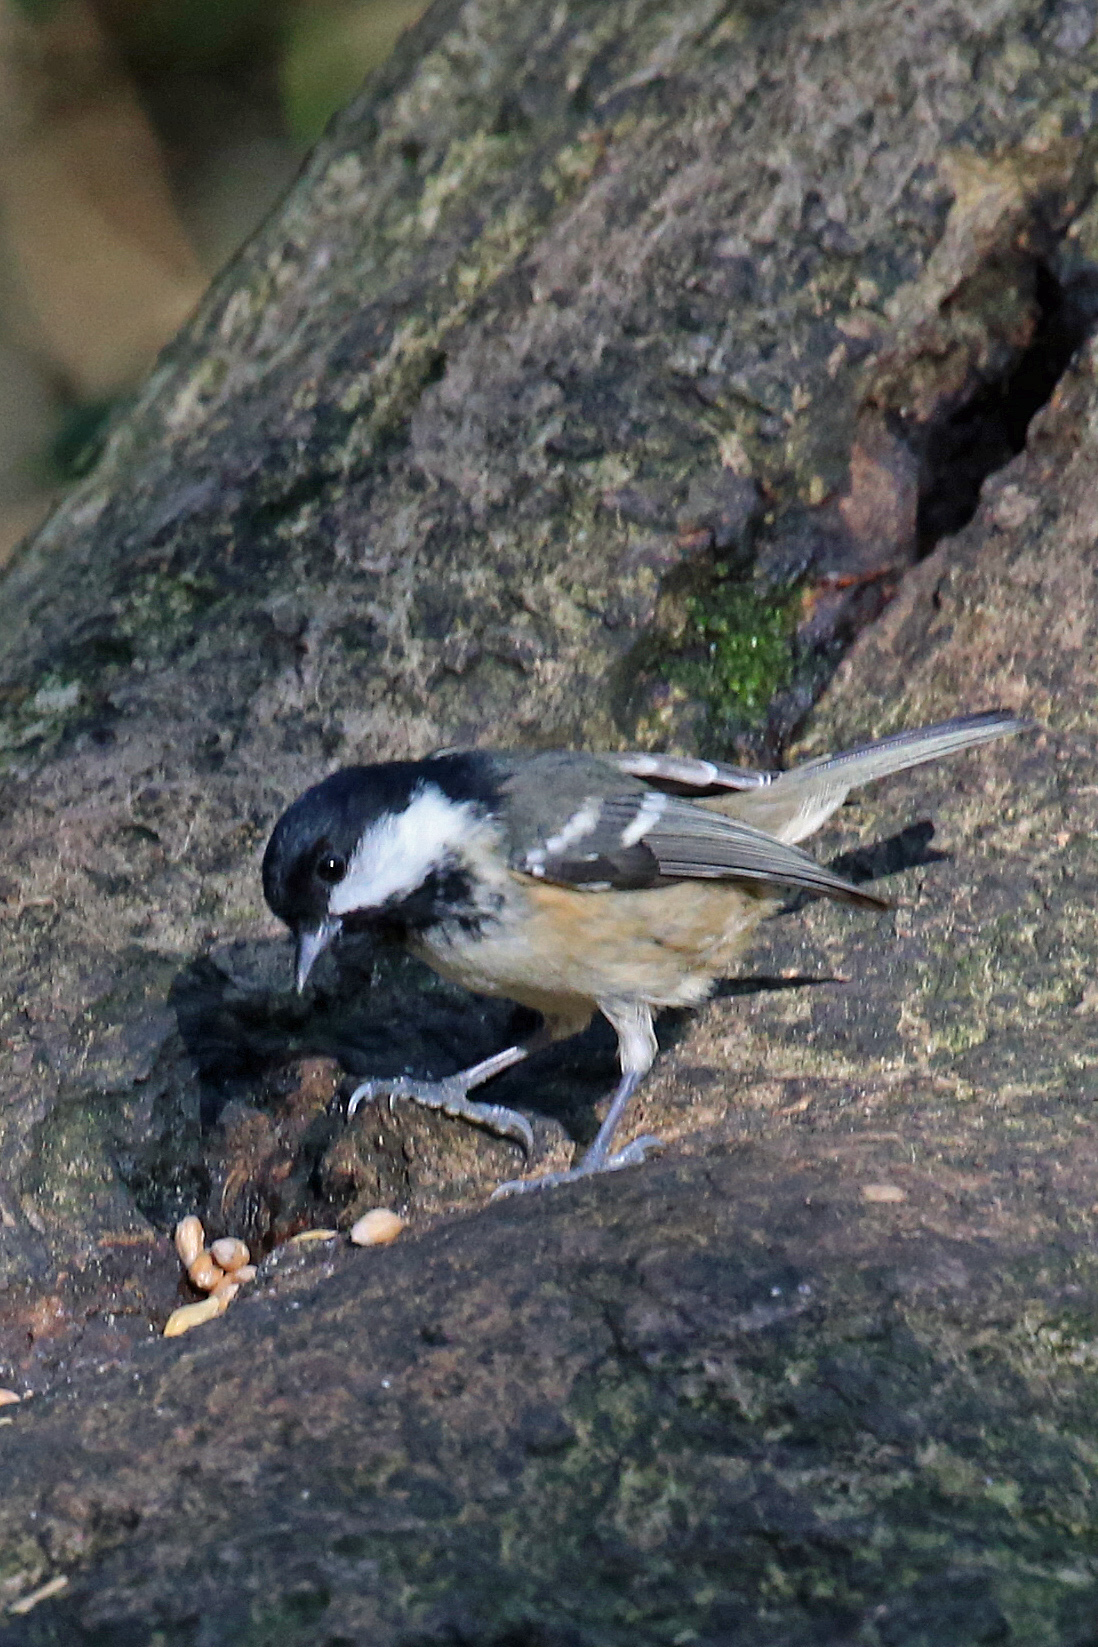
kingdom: Animalia
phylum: Chordata
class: Aves
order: Passeriformes
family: Paridae
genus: Periparus
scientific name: Periparus ater
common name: Coal tit
